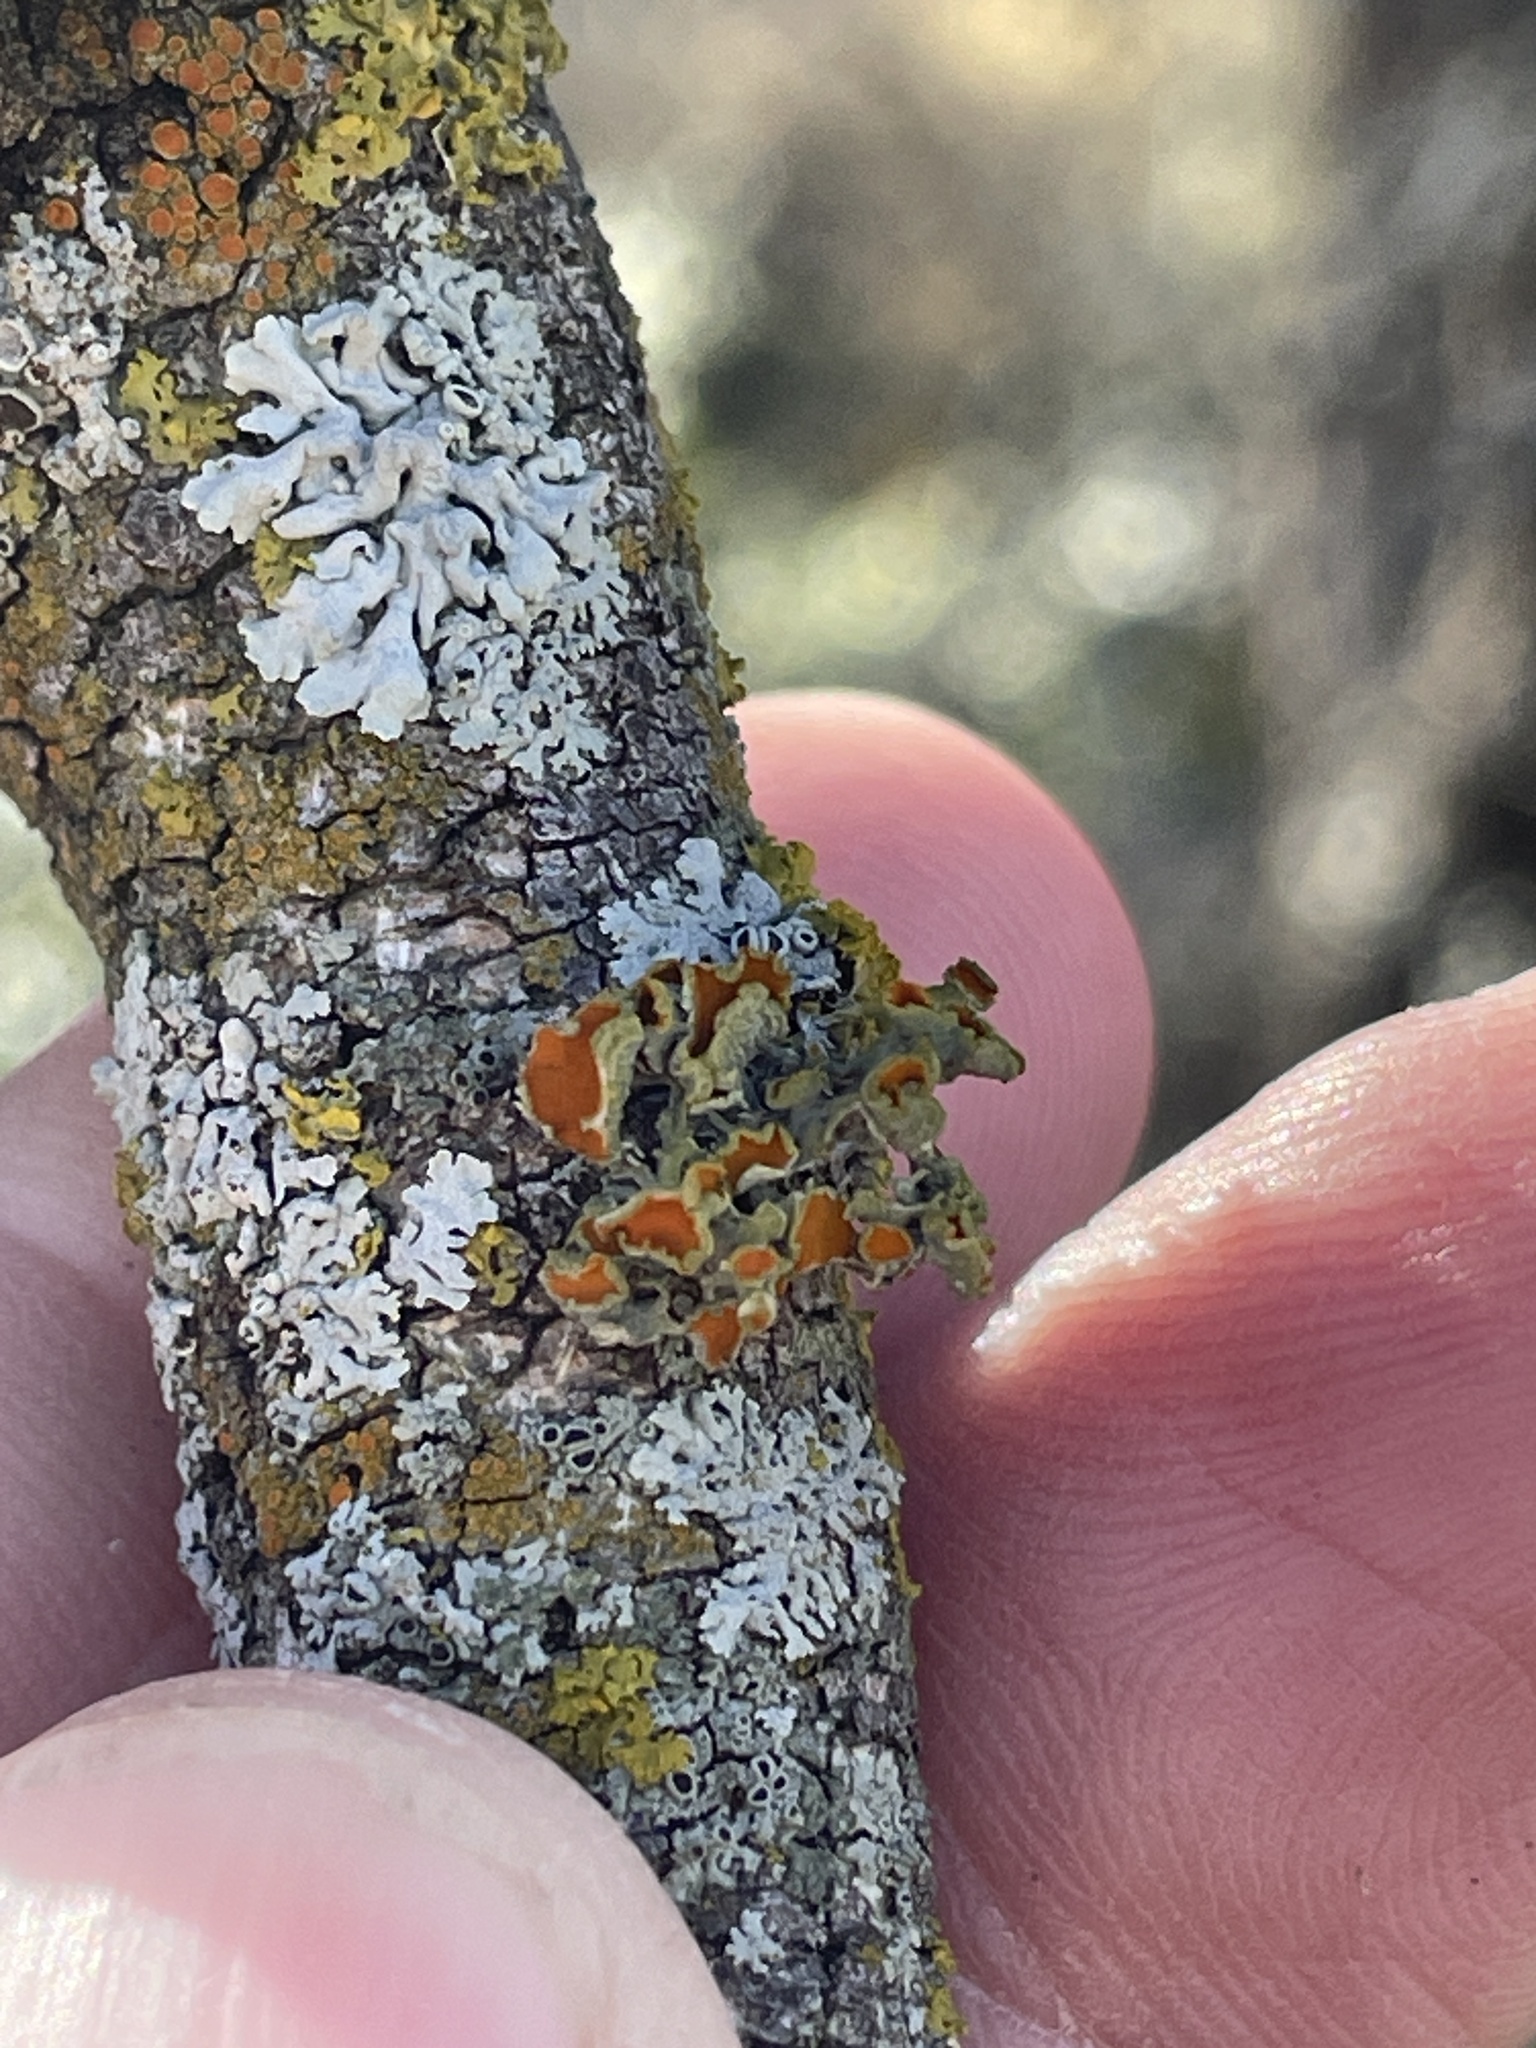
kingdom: Fungi
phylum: Ascomycota
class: Lecanoromycetes
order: Teloschistales
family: Teloschistaceae
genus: Niorma
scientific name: Niorma chrysophthalma
